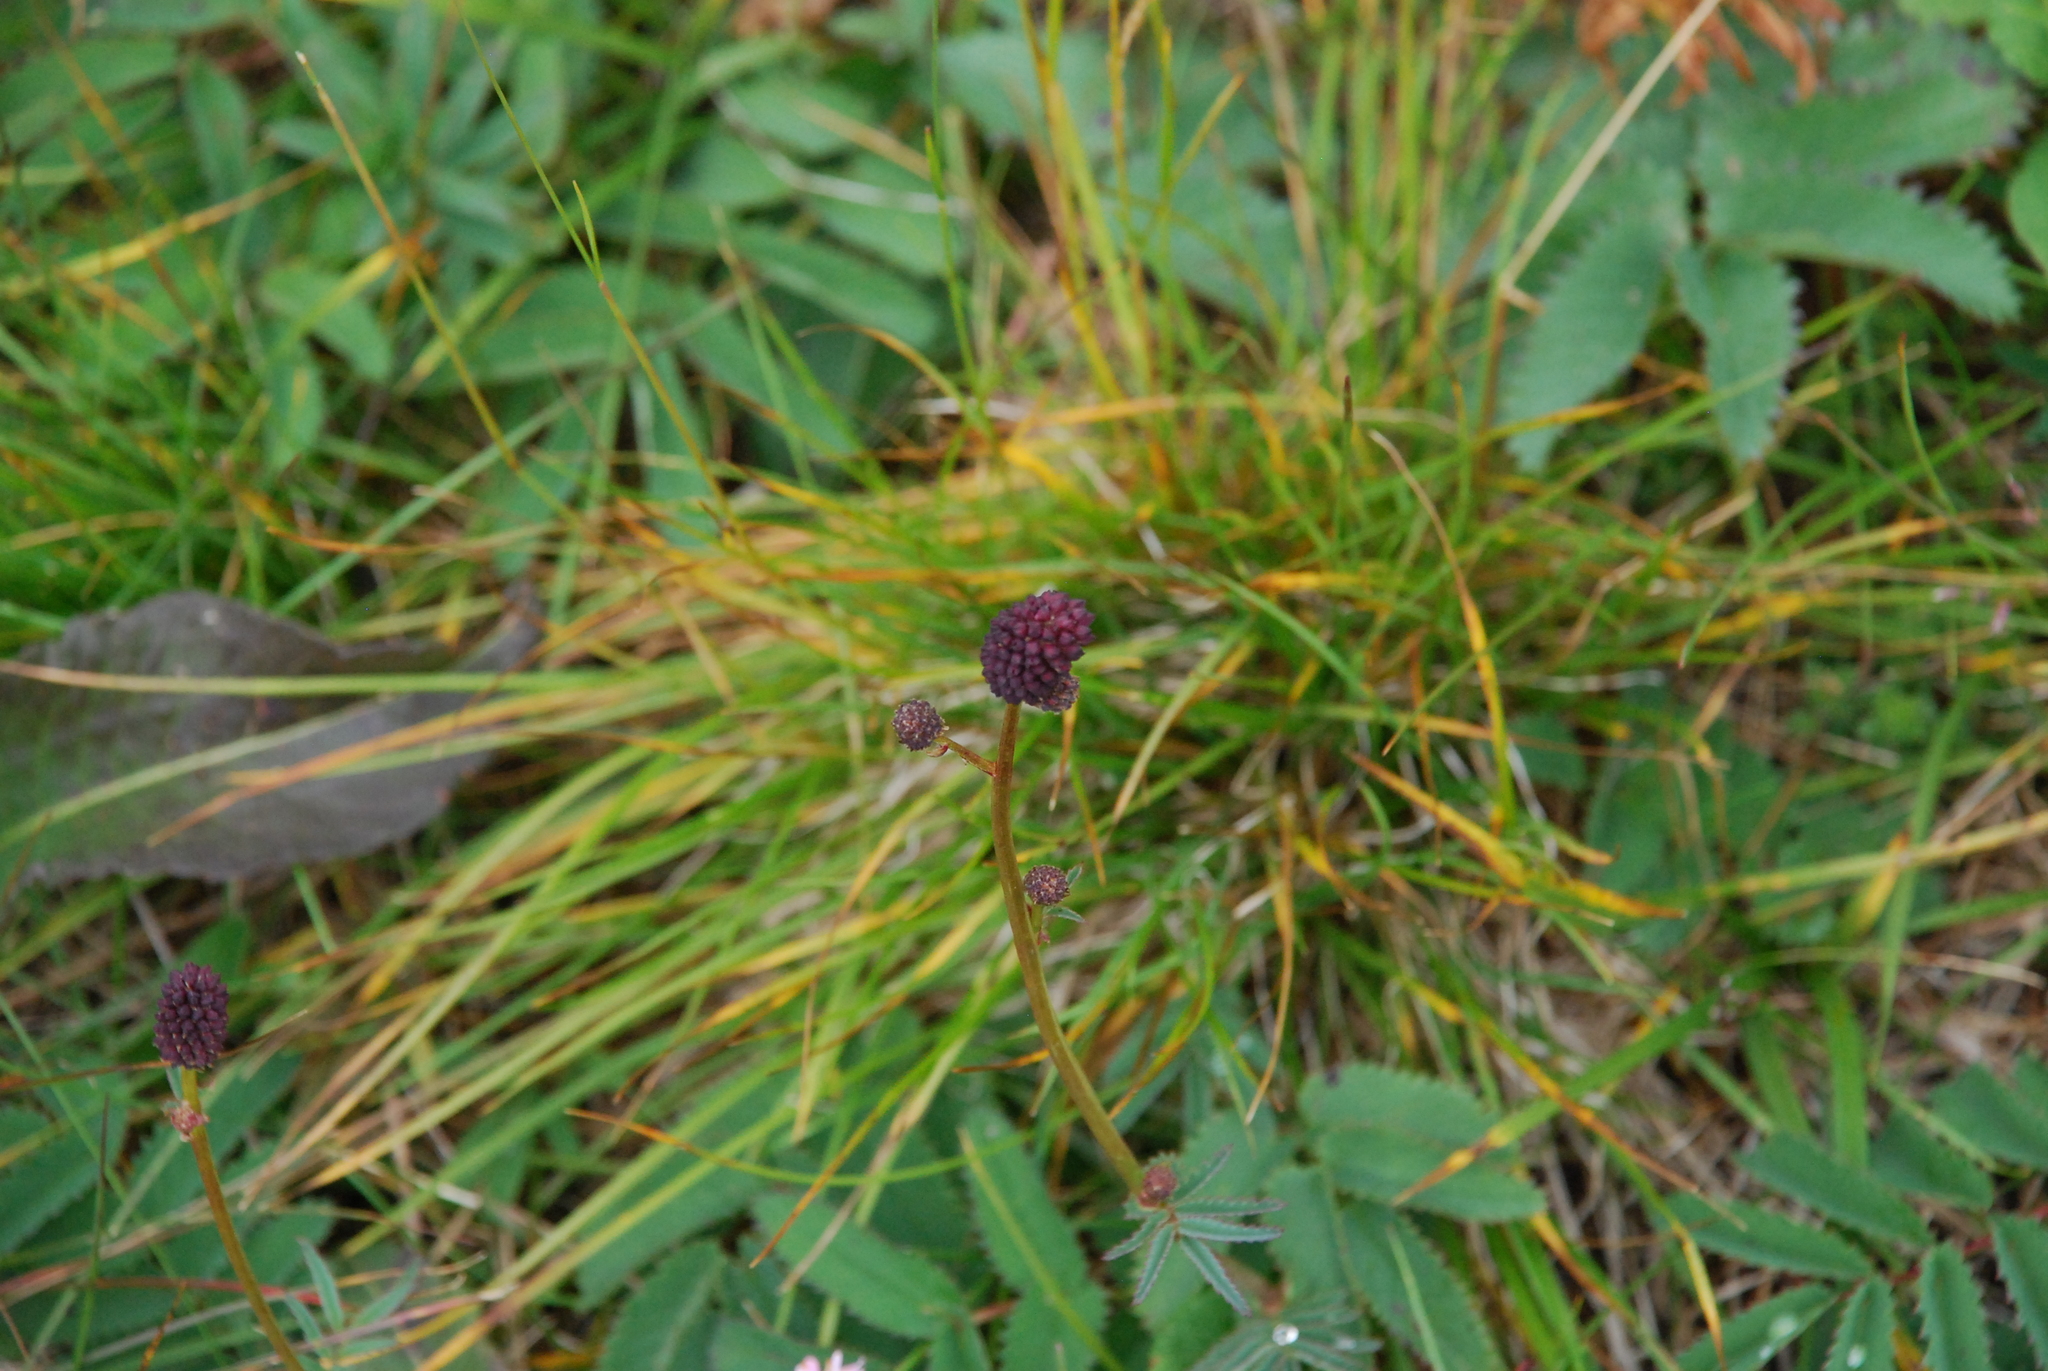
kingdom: Plantae
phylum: Tracheophyta
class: Magnoliopsida
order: Rosales
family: Rosaceae
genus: Sanguisorba
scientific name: Sanguisorba officinalis
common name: Great burnet
